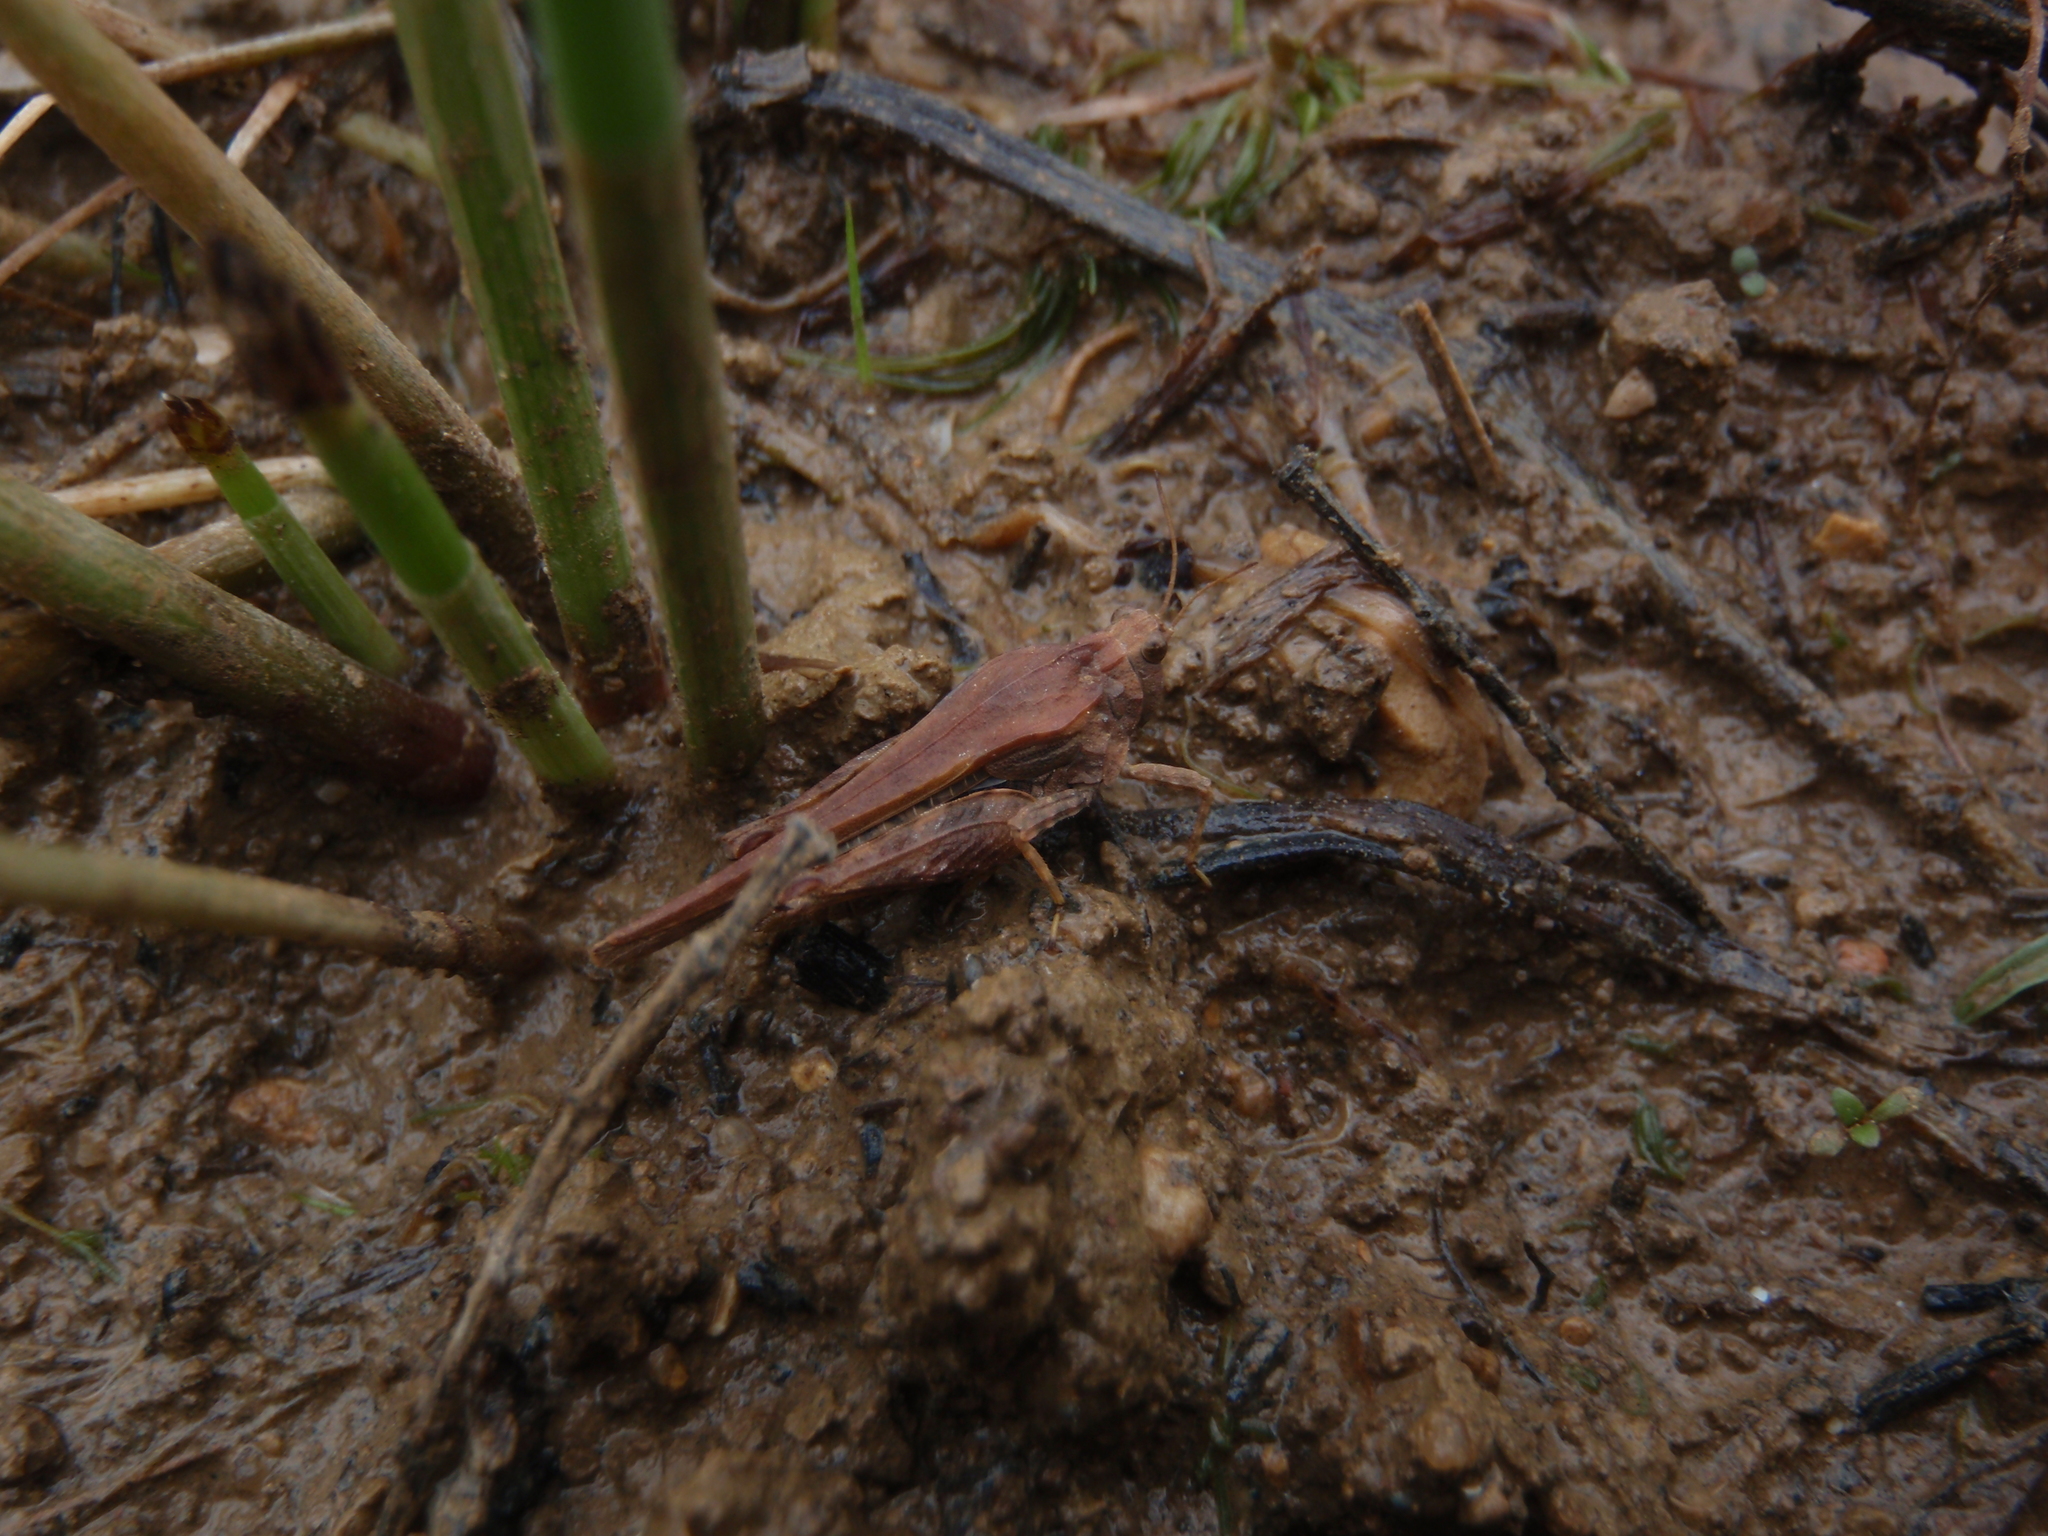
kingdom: Animalia
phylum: Arthropoda
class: Insecta
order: Orthoptera
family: Tetrigidae
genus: Tetrix
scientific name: Tetrix subulata
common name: Slender ground-hopper
